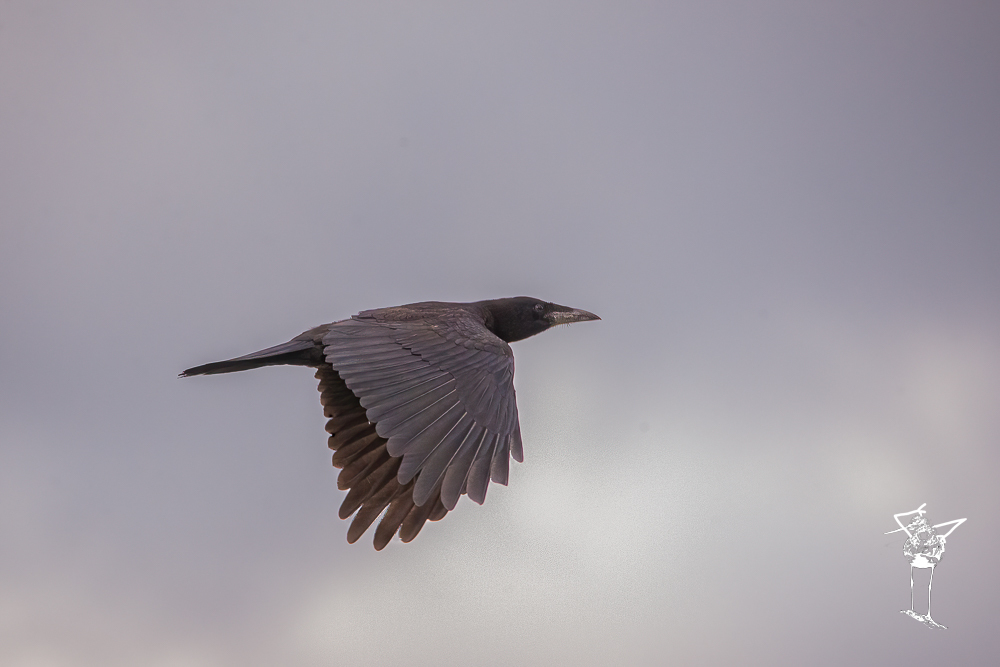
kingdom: Animalia
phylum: Chordata
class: Aves
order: Passeriformes
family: Corvidae
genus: Corvus
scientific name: Corvus corax
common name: Common raven
